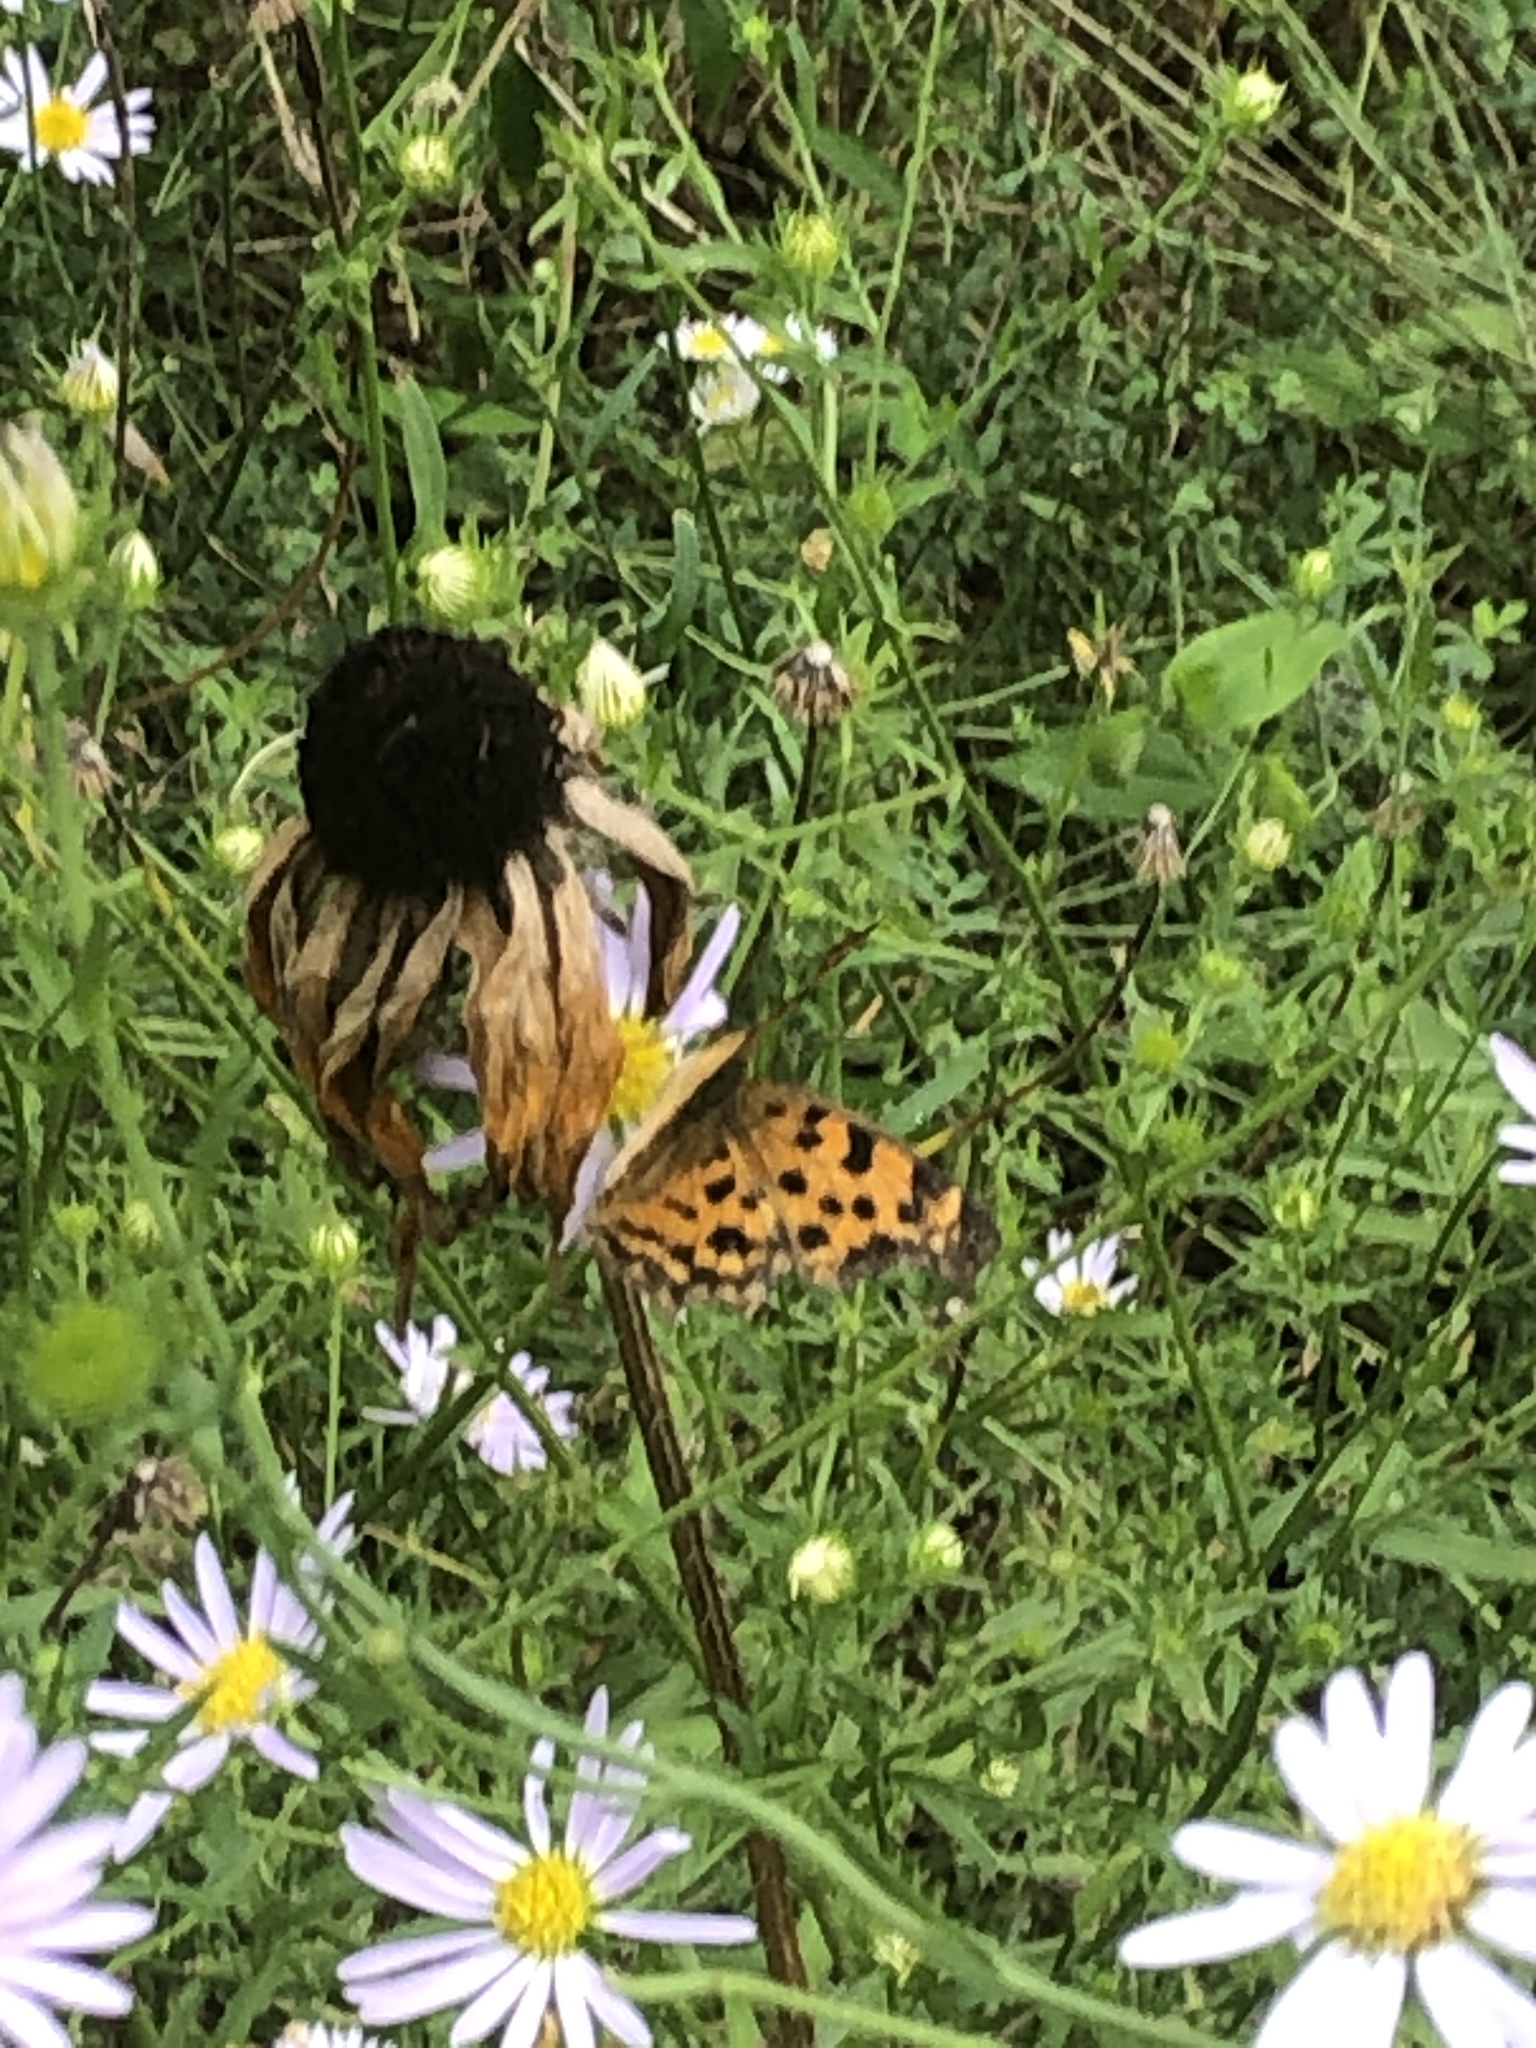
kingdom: Animalia
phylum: Arthropoda
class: Insecta
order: Lepidoptera
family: Nymphalidae
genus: Polygonia
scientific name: Polygonia c-aureum
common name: Asian comma
